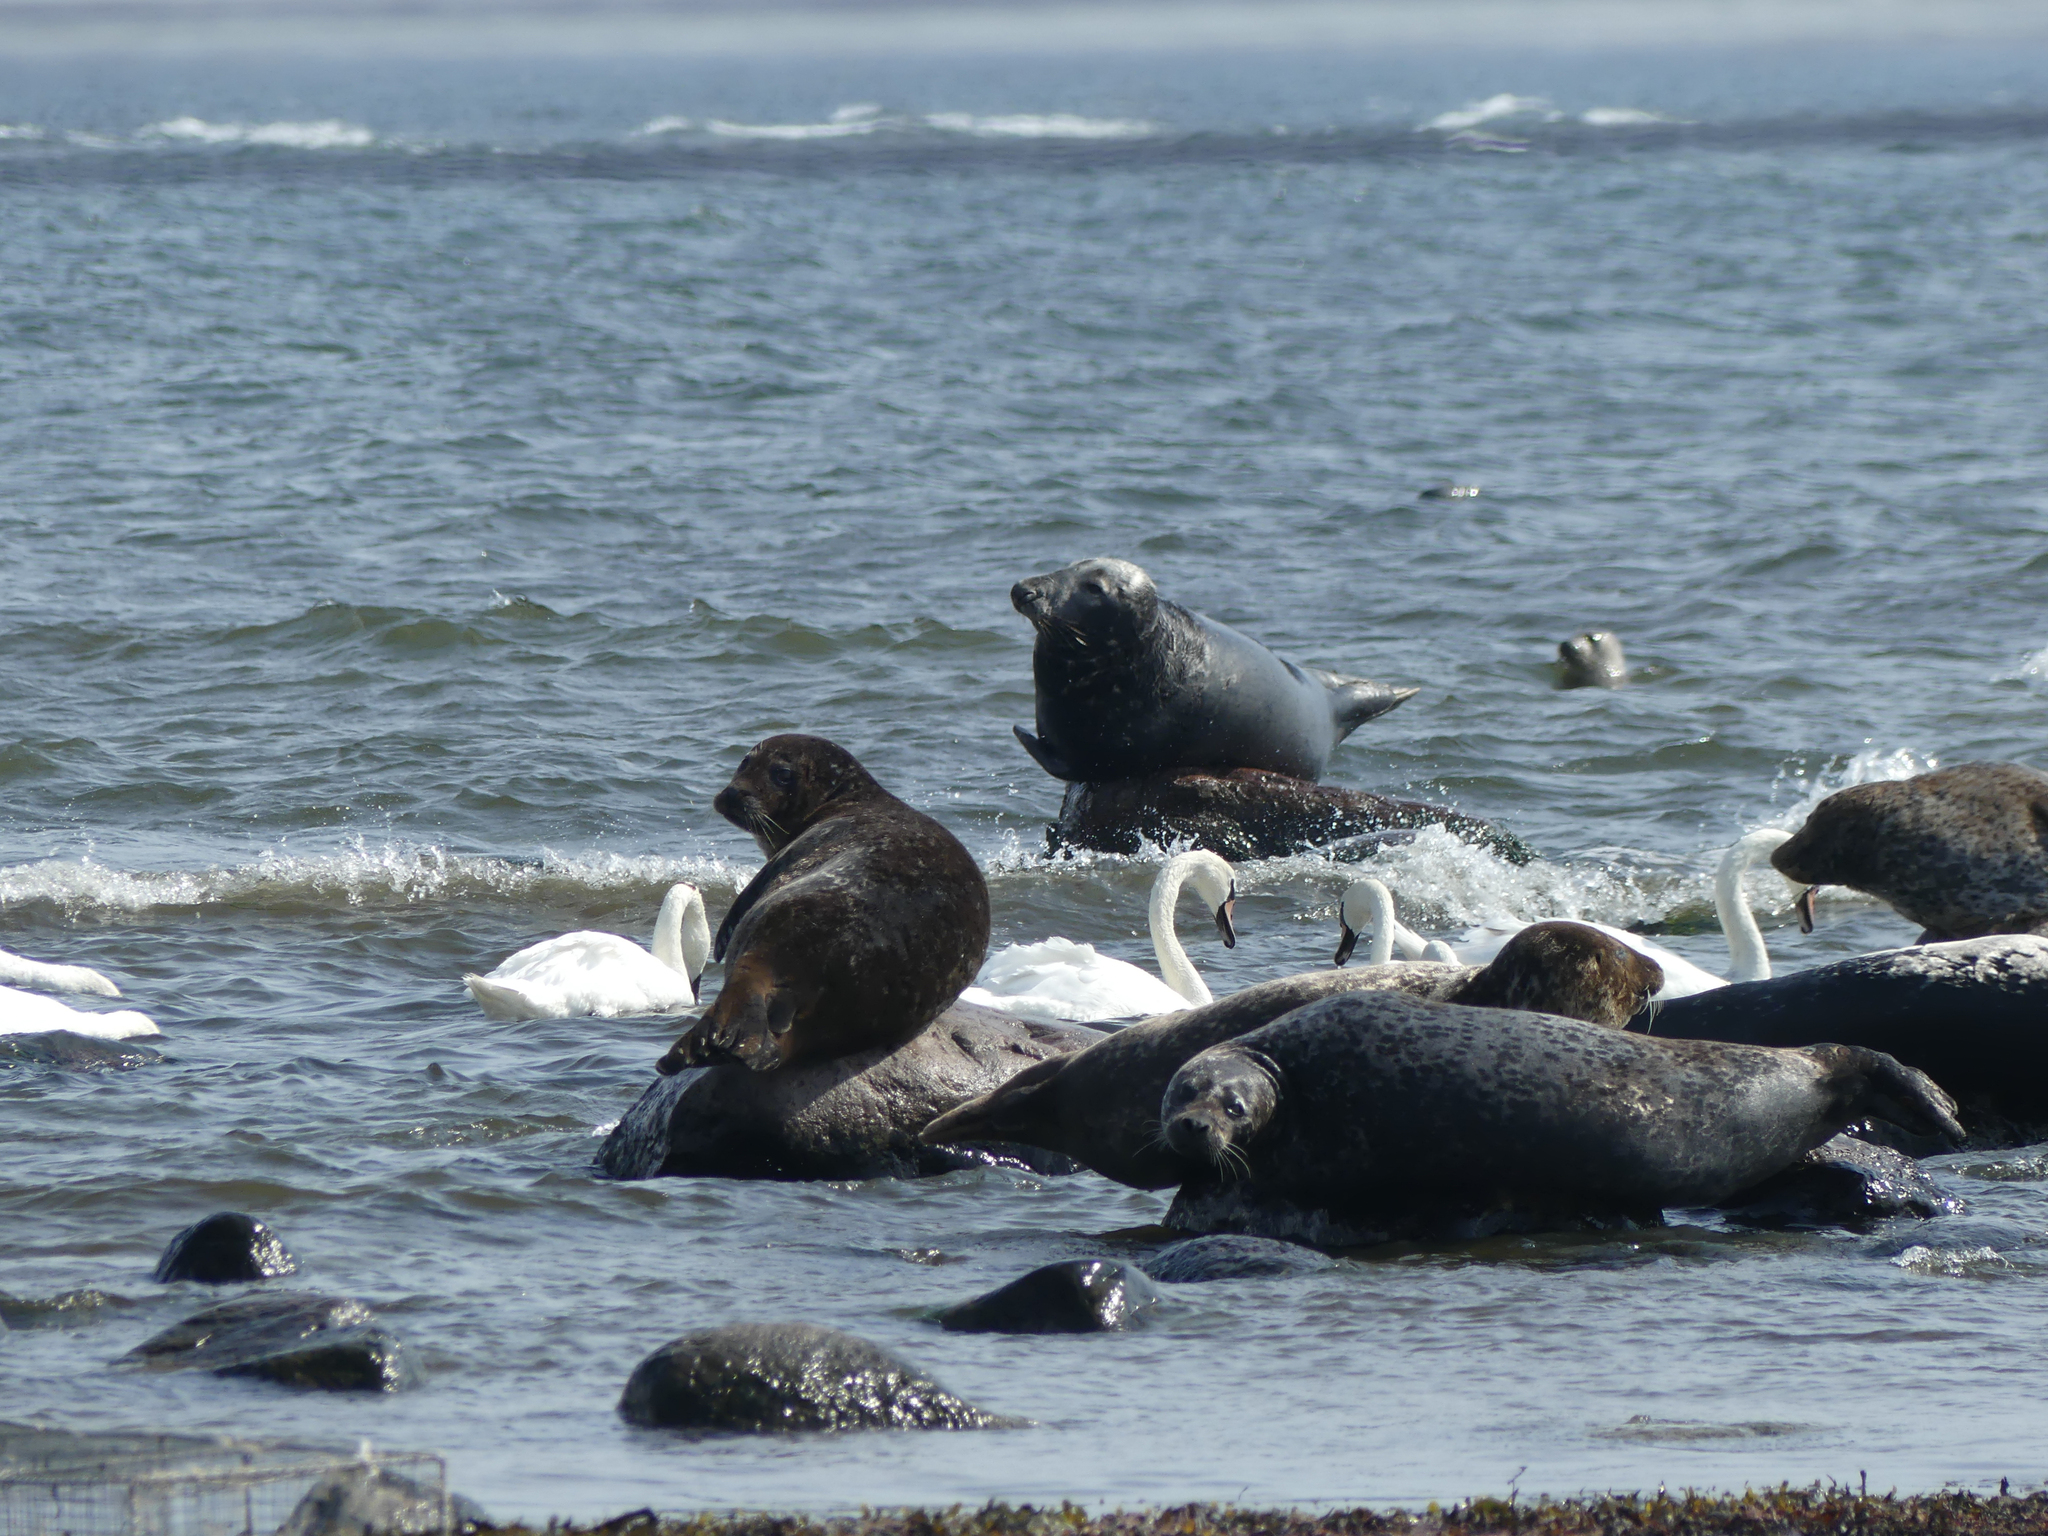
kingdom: Animalia
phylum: Chordata
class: Mammalia
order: Carnivora
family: Phocidae
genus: Halichoerus
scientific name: Halichoerus grypus
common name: Grey seal
